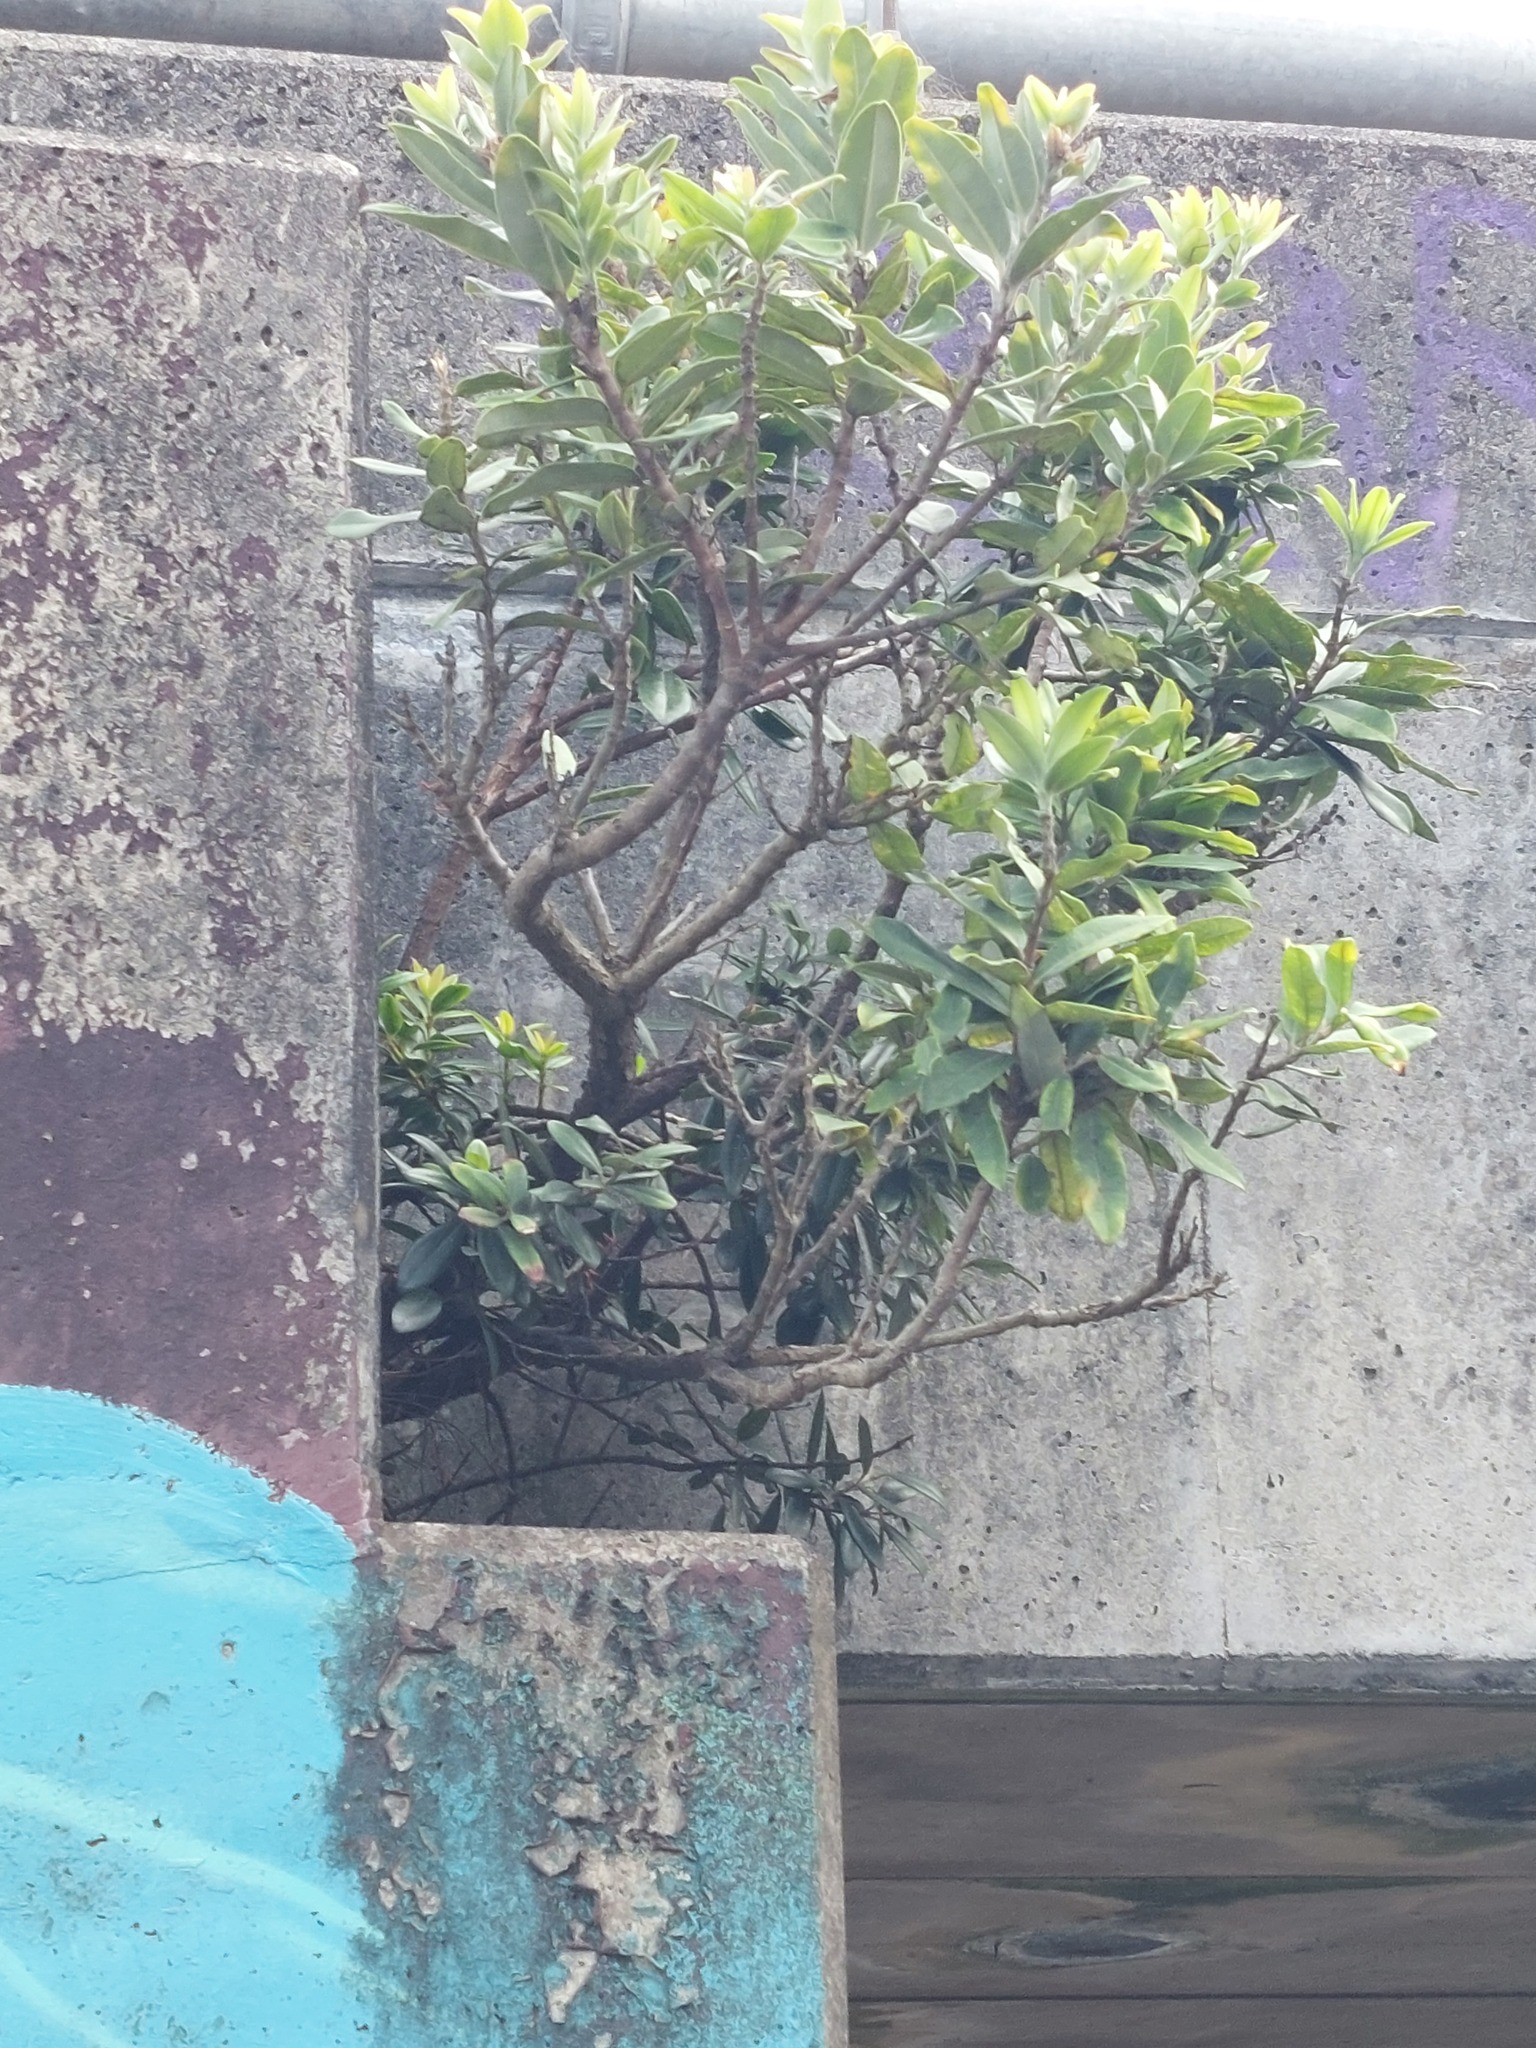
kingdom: Plantae
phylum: Tracheophyta
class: Magnoliopsida
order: Myrtales
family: Myrtaceae
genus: Metrosideros
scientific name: Metrosideros excelsa
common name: New zealand christmastree
